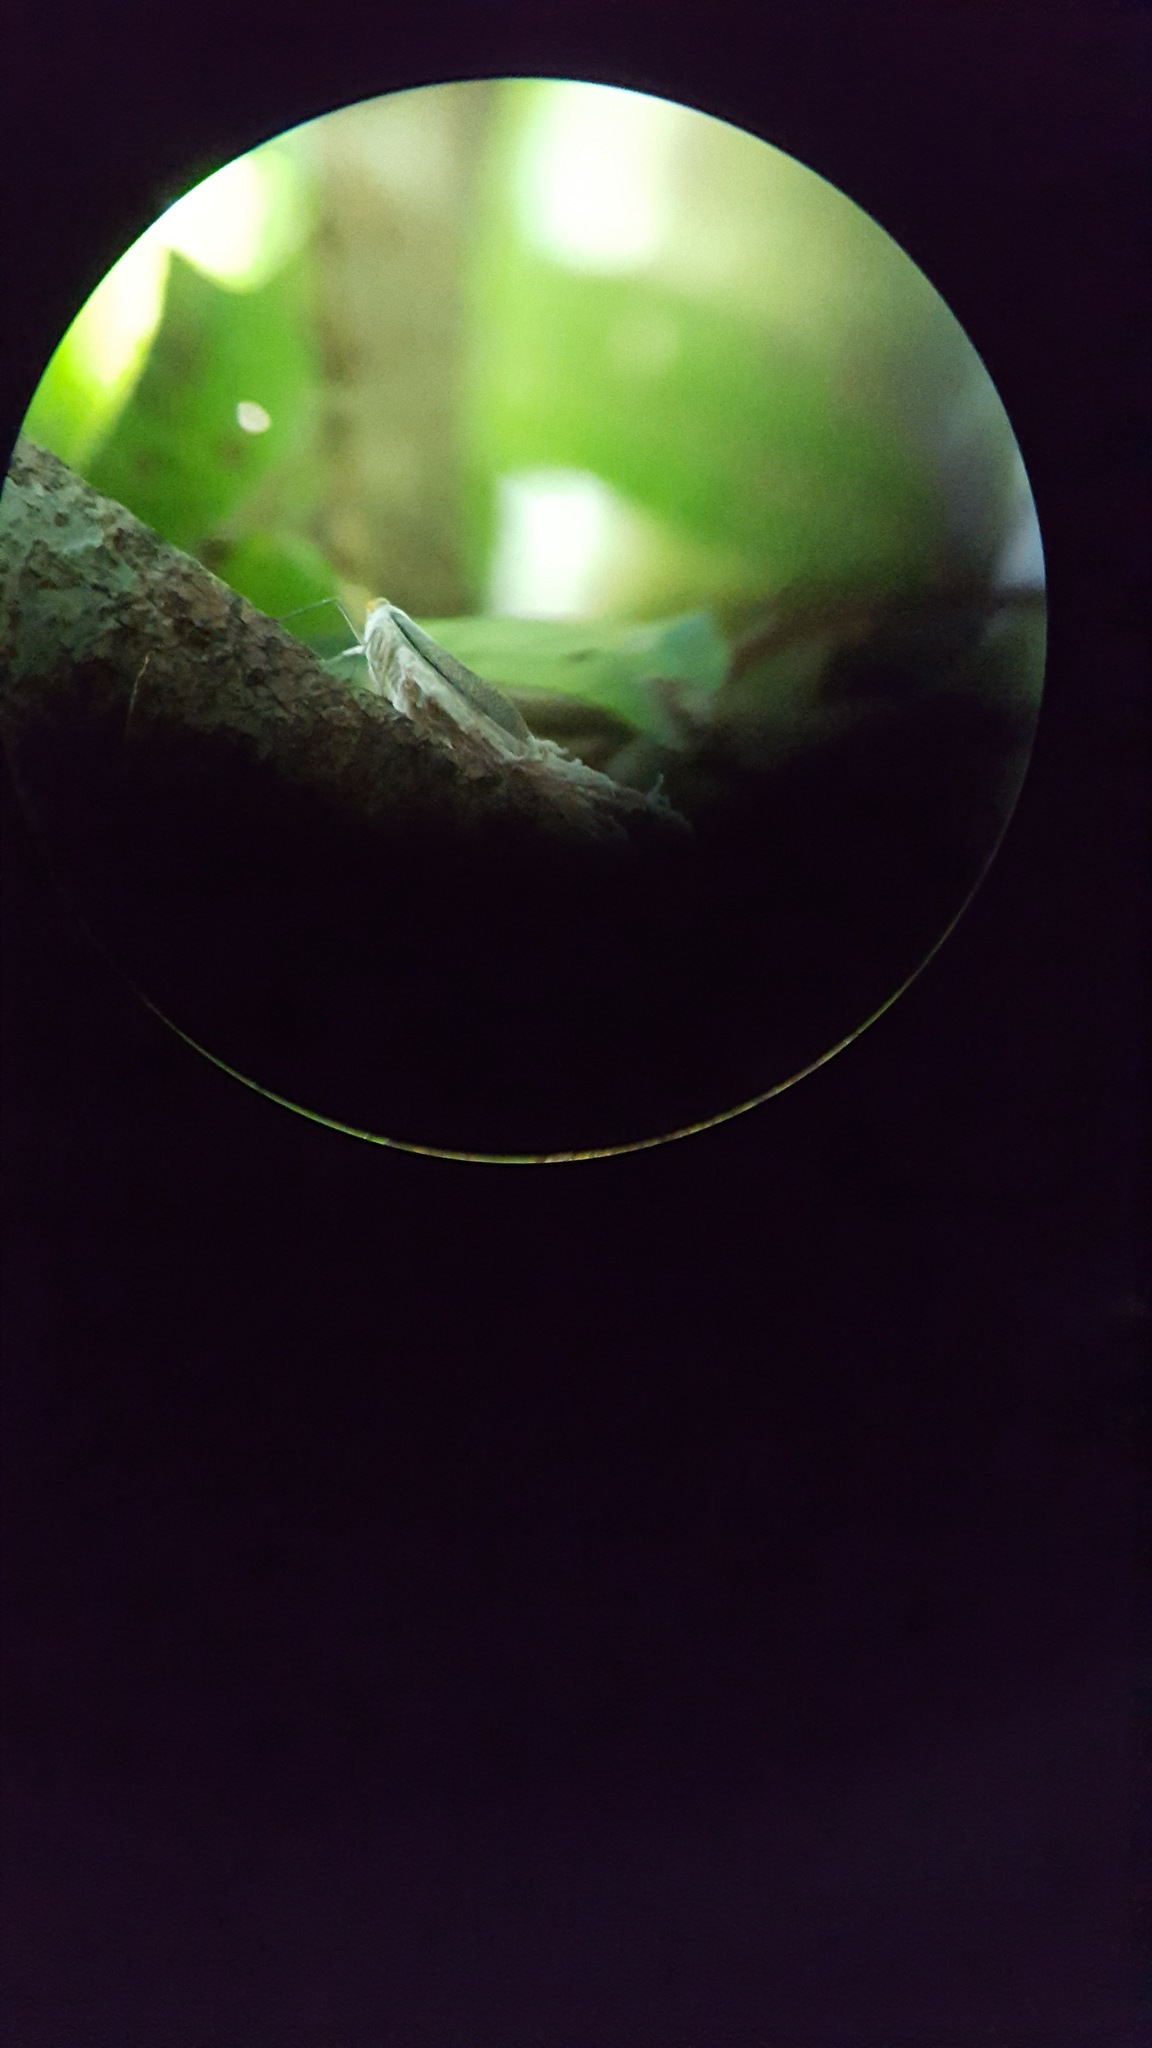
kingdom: Animalia
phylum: Arthropoda
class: Insecta
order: Hemiptera
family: Fulgoridae
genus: Pterodictya
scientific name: Pterodictya reticularis
